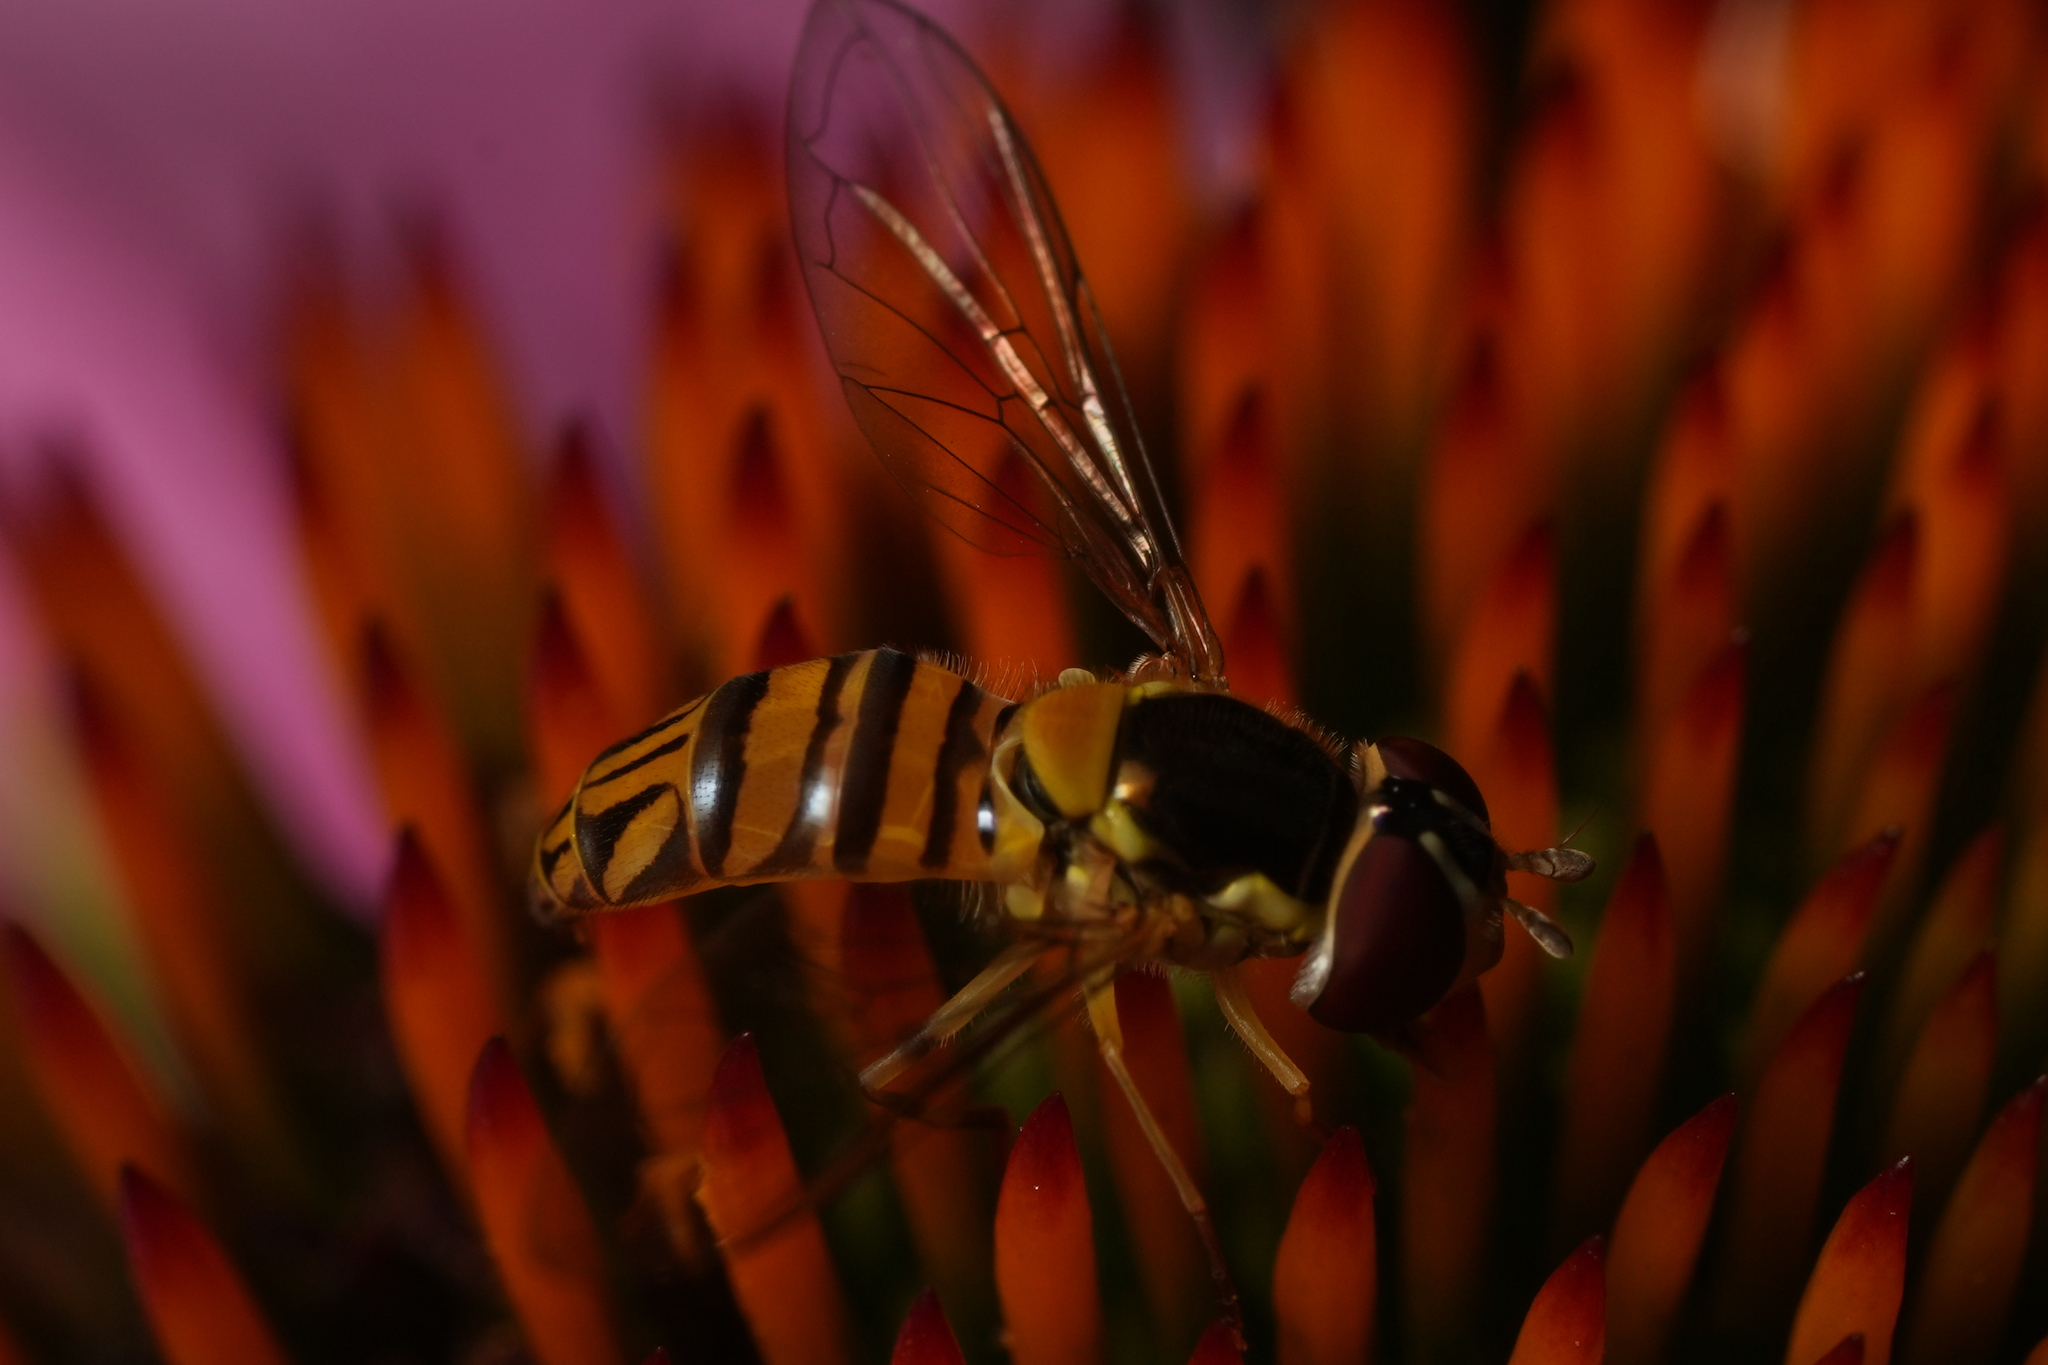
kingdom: Animalia
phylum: Arthropoda
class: Insecta
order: Diptera
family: Syrphidae
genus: Allograpta
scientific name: Allograpta obliqua
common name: Common oblique syrphid
